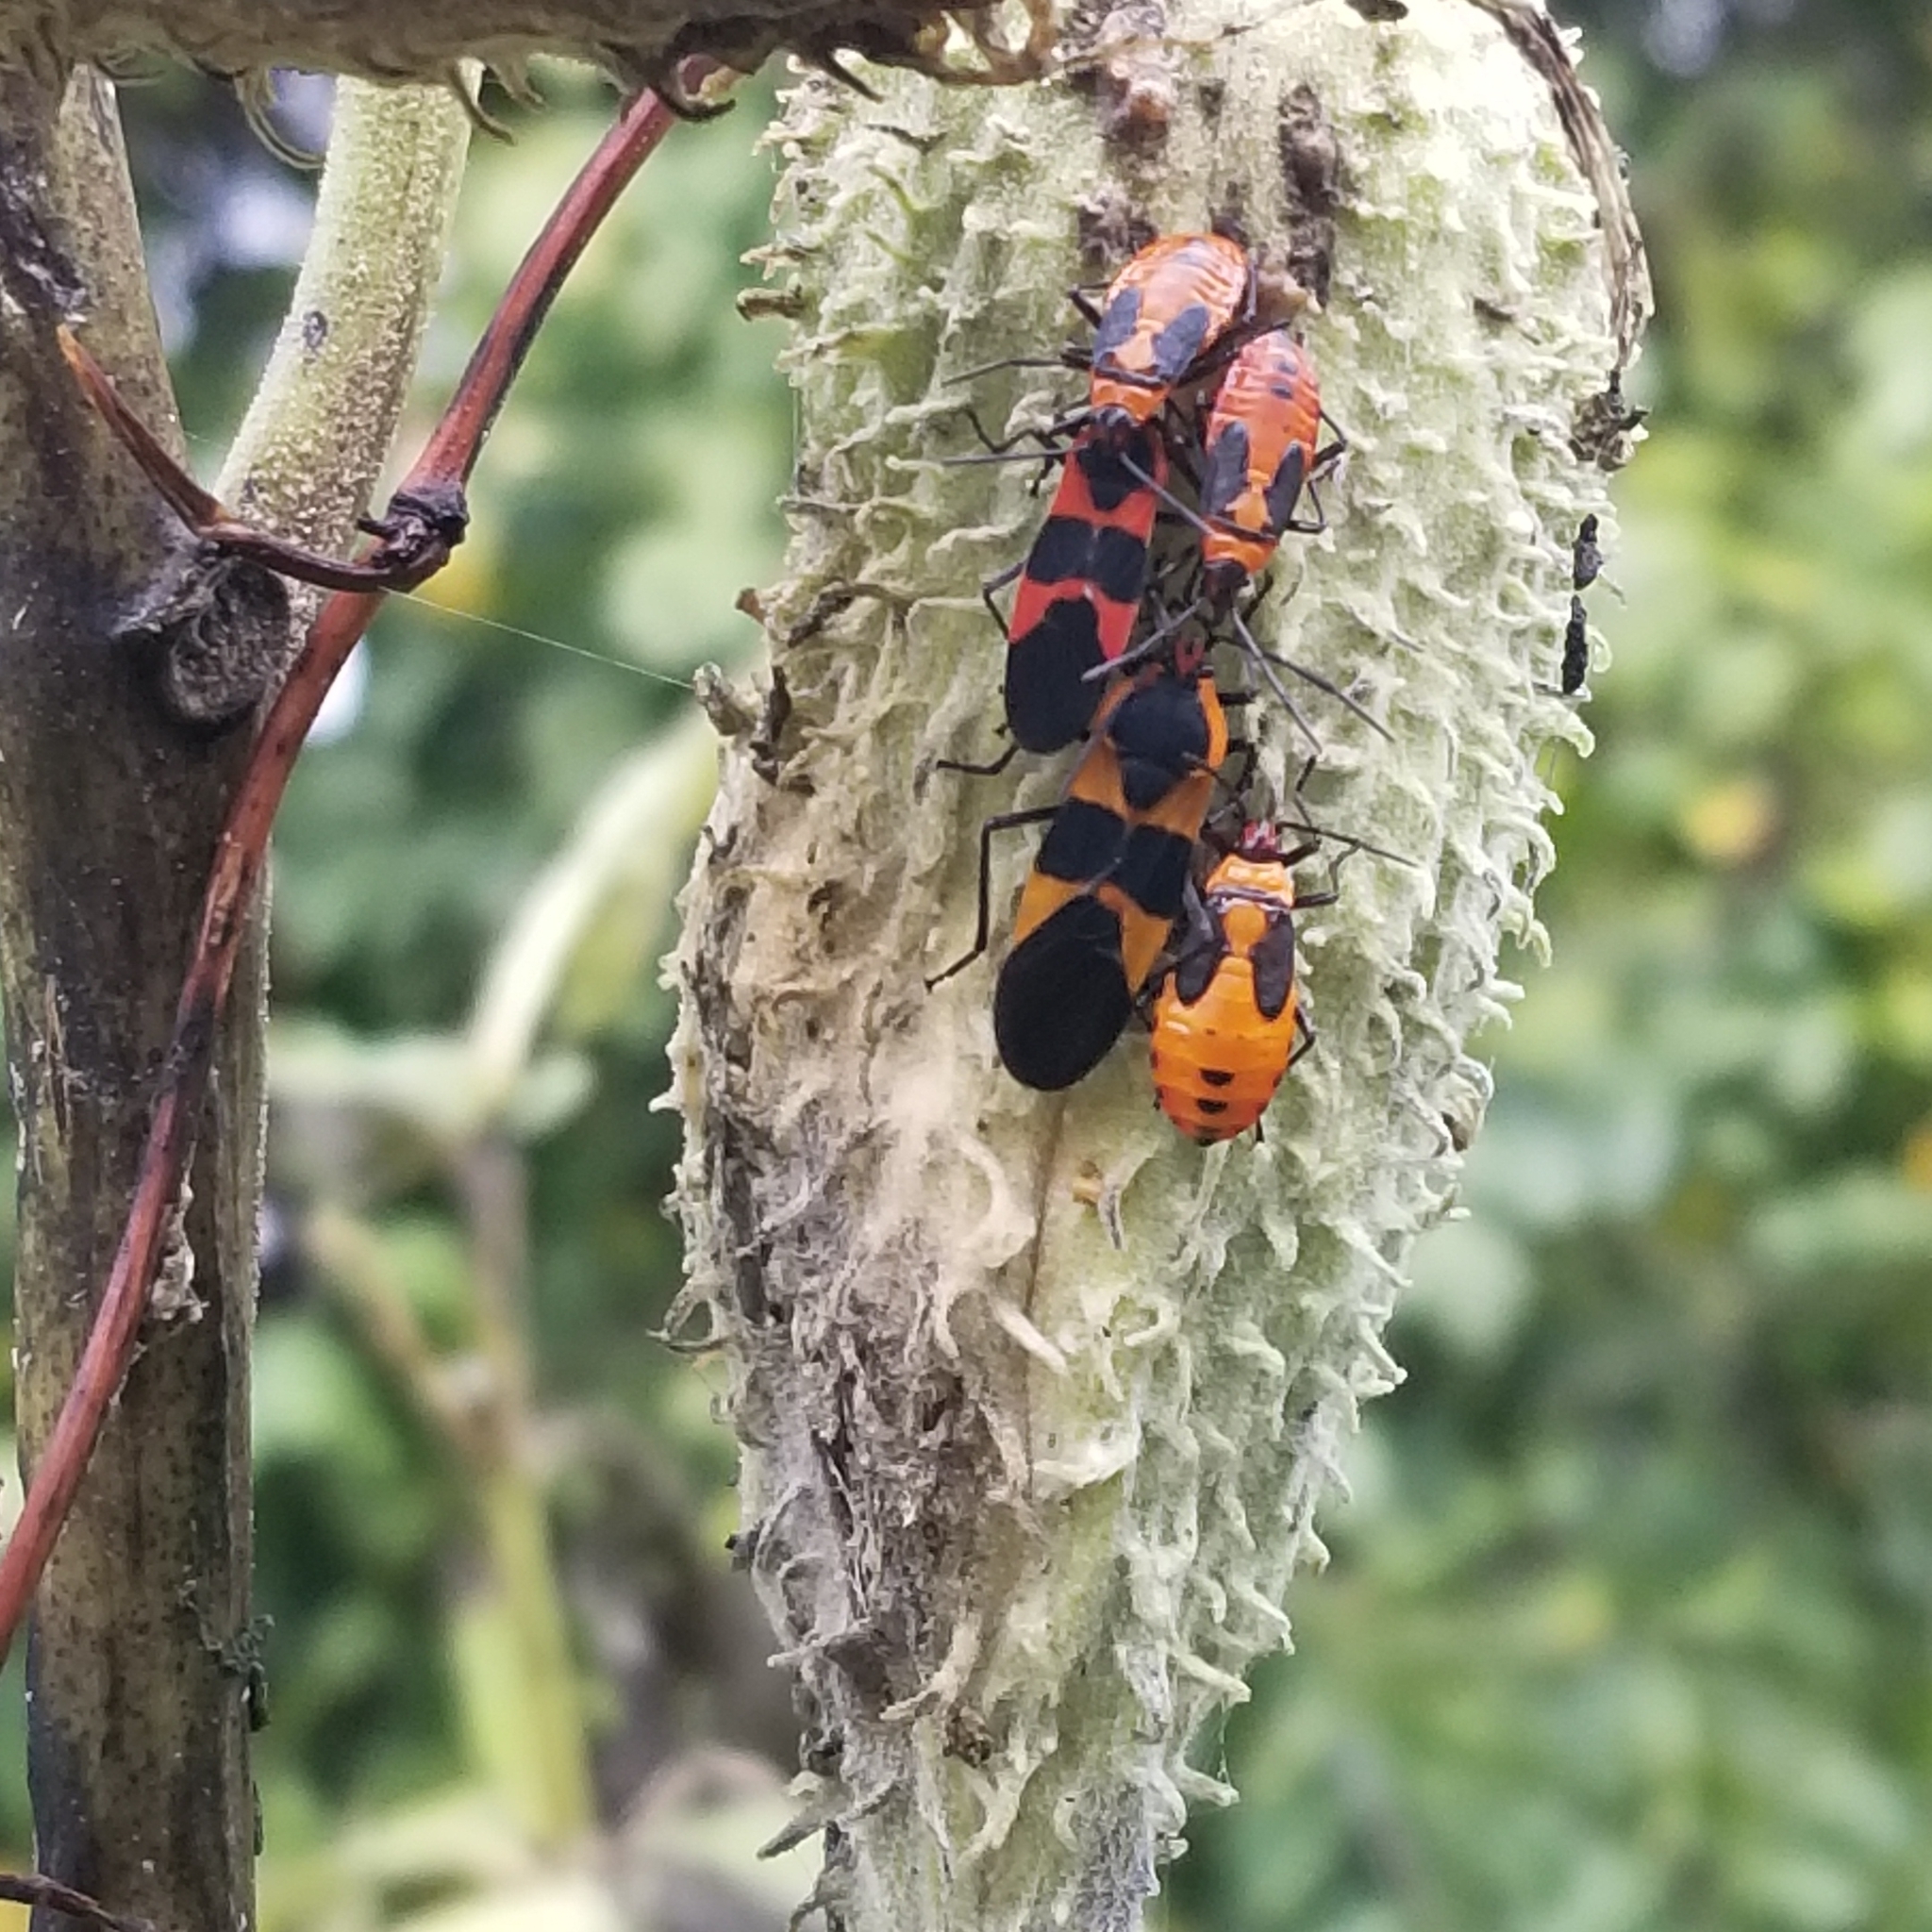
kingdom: Animalia
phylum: Arthropoda
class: Insecta
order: Hemiptera
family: Lygaeidae
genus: Oncopeltus
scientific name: Oncopeltus fasciatus
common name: Large milkweed bug
